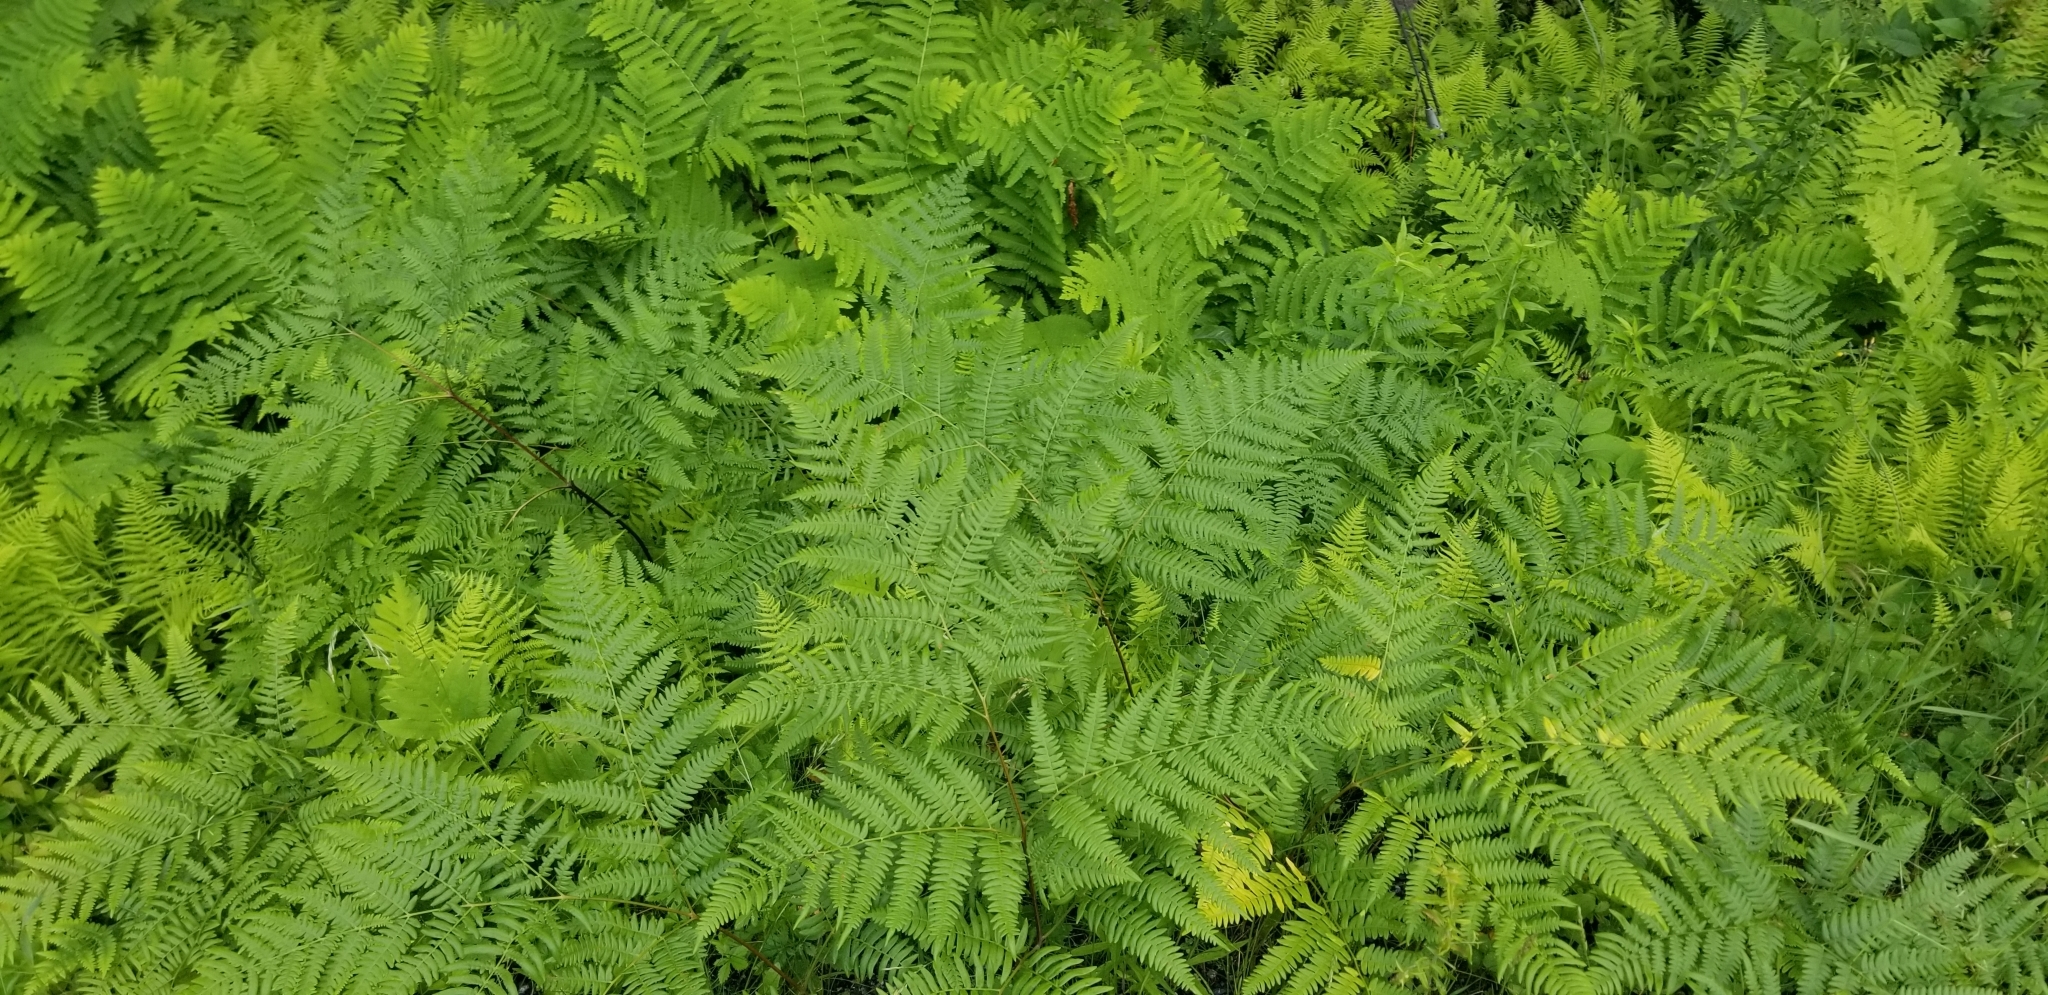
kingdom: Plantae
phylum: Tracheophyta
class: Polypodiopsida
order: Polypodiales
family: Dennstaedtiaceae
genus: Pteridium
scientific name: Pteridium aquilinum
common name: Bracken
